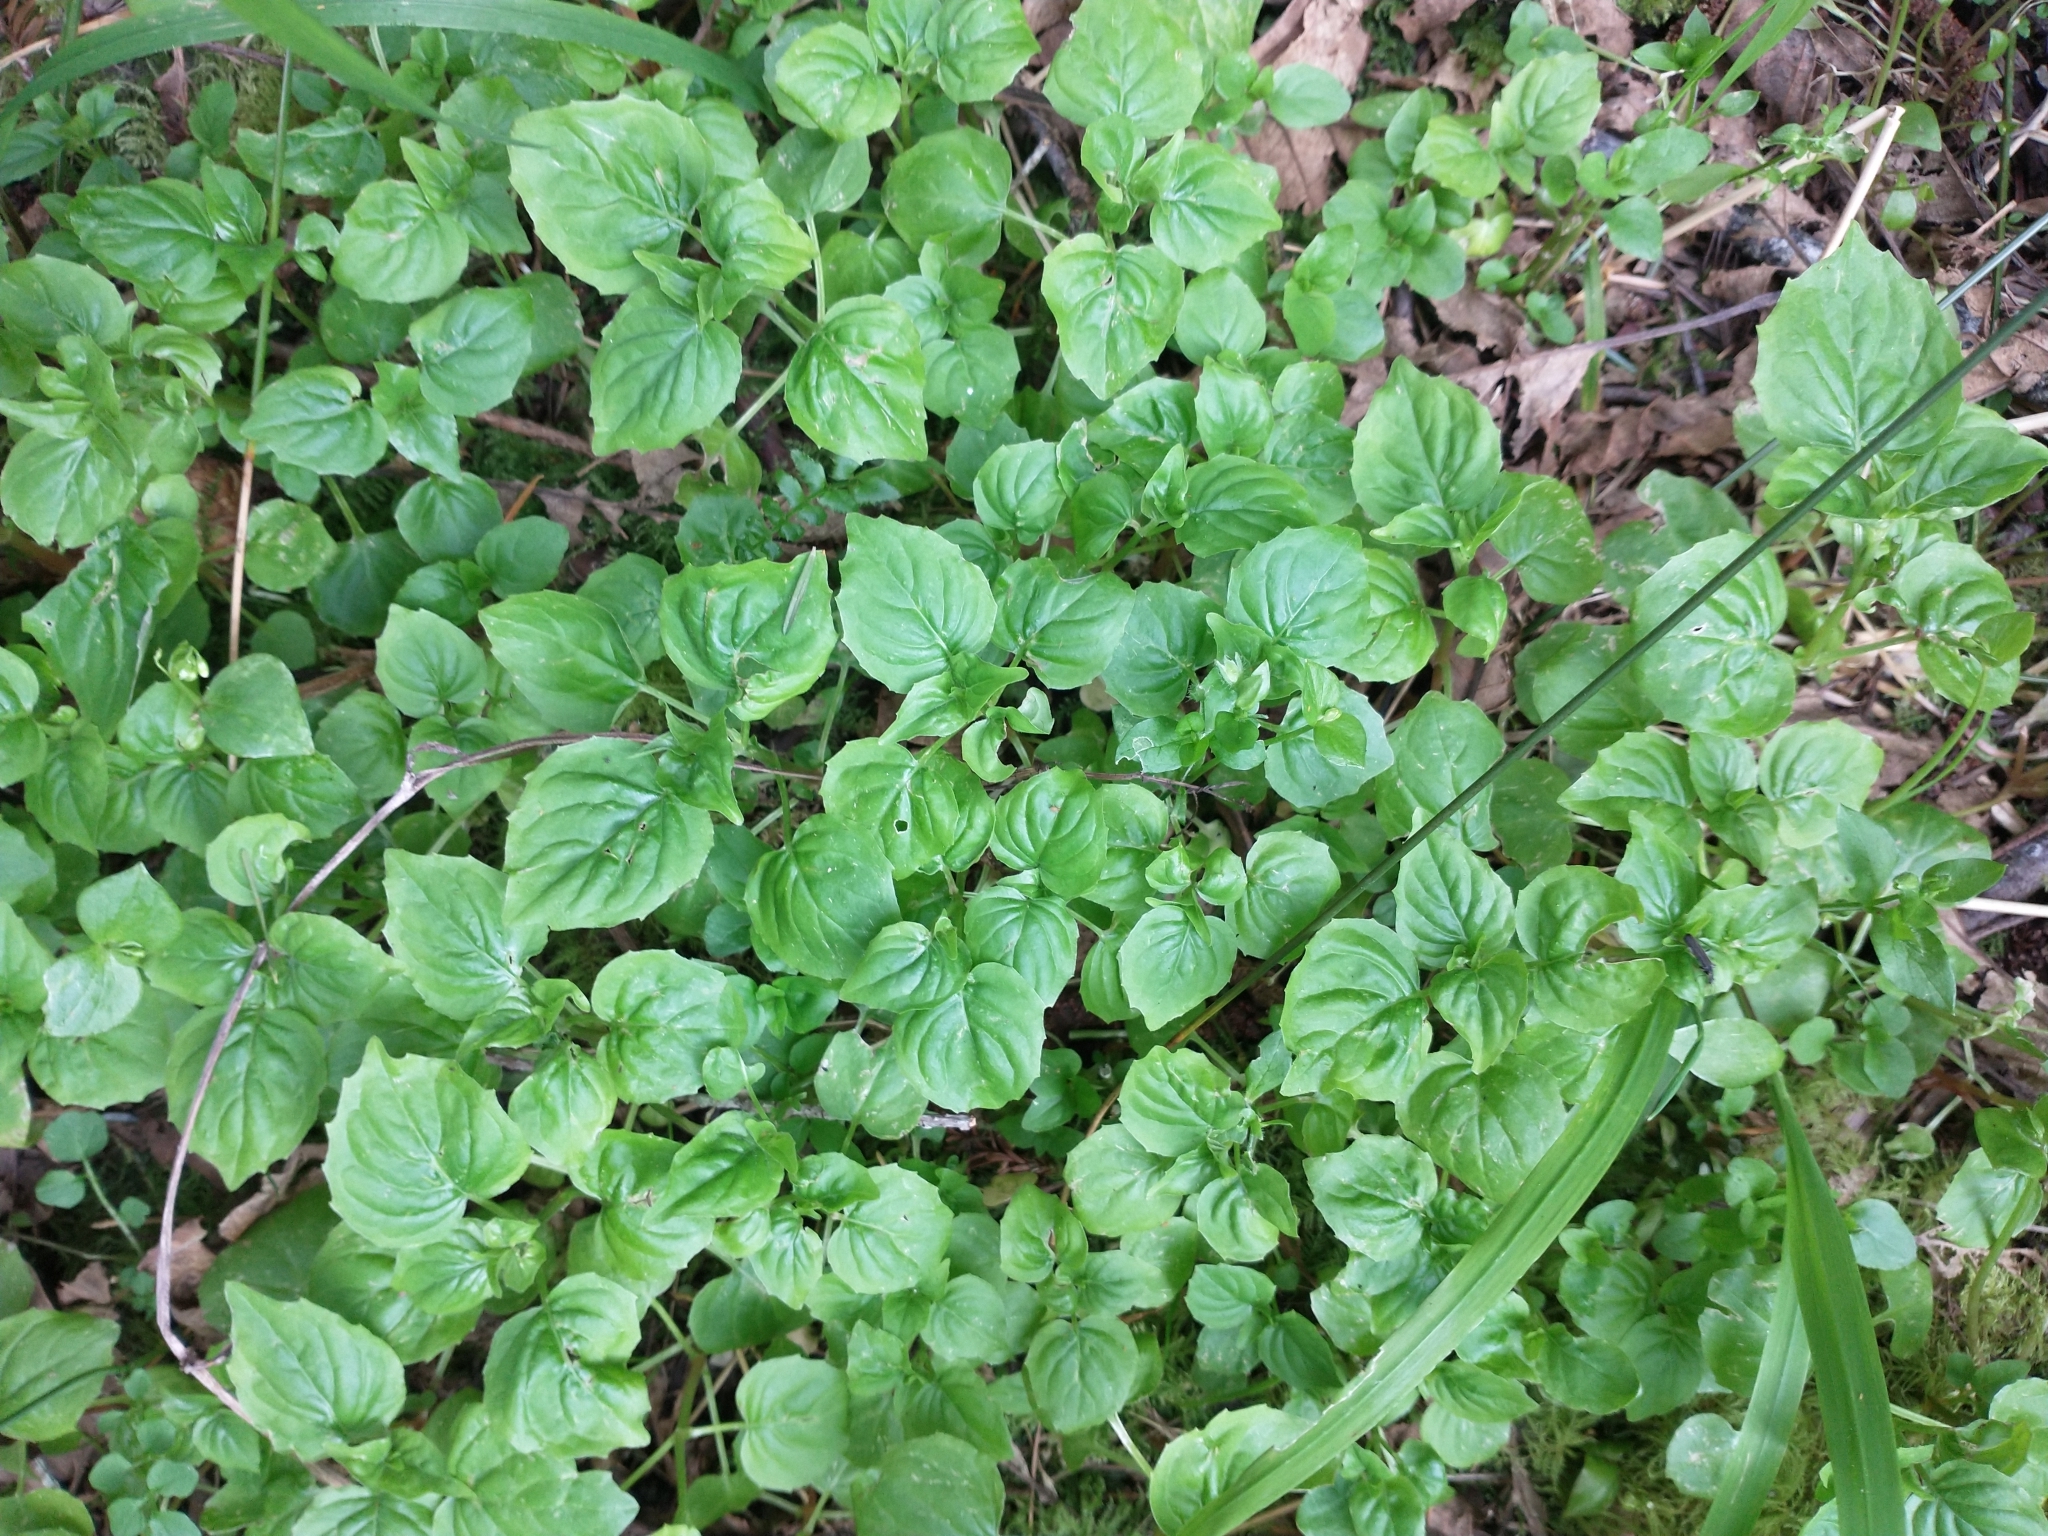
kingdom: Plantae
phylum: Tracheophyta
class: Magnoliopsida
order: Myrtales
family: Onagraceae
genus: Circaea
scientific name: Circaea alpina
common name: Alpine enchanter's-nightshade
